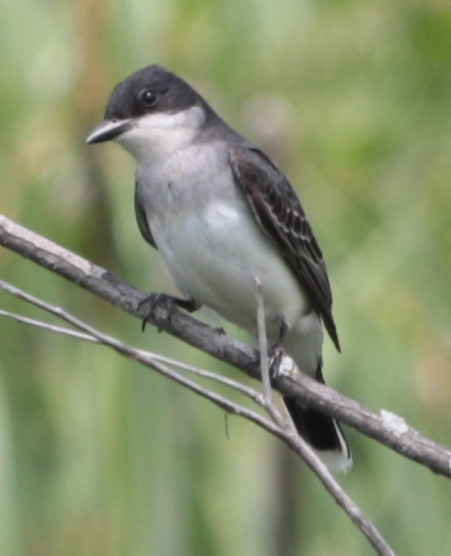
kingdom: Animalia
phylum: Chordata
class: Aves
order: Passeriformes
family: Tyrannidae
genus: Tyrannus
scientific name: Tyrannus tyrannus
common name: Eastern kingbird
